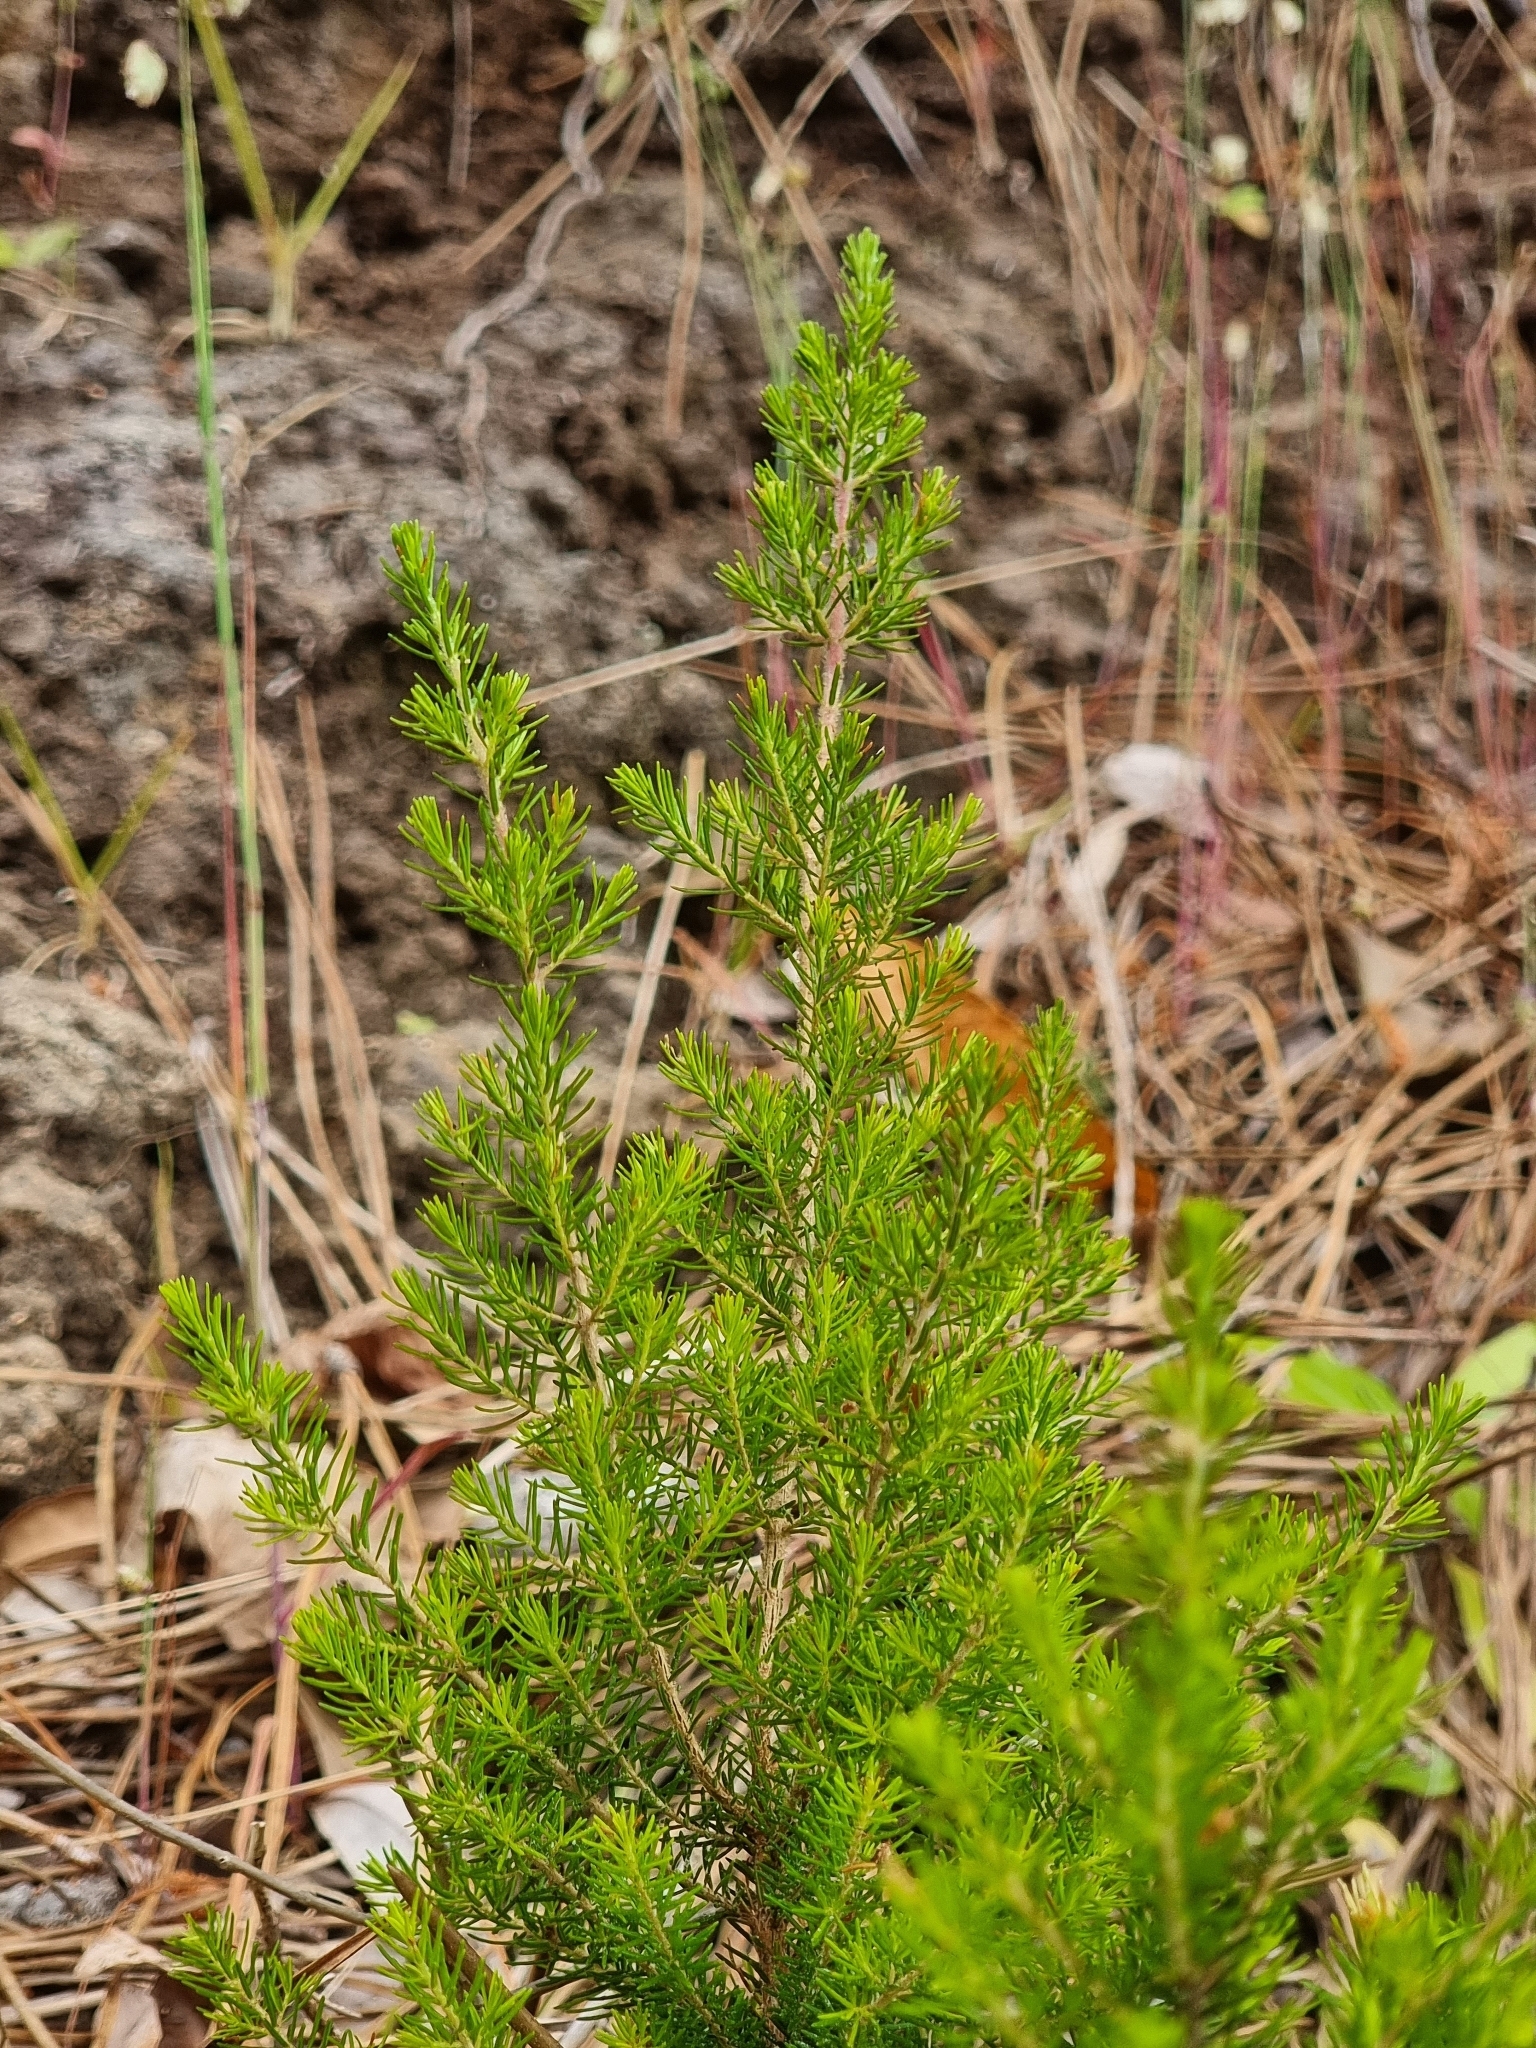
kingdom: Plantae
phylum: Tracheophyta
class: Magnoliopsida
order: Ericales
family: Ericaceae
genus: Erica
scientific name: Erica canariensis
